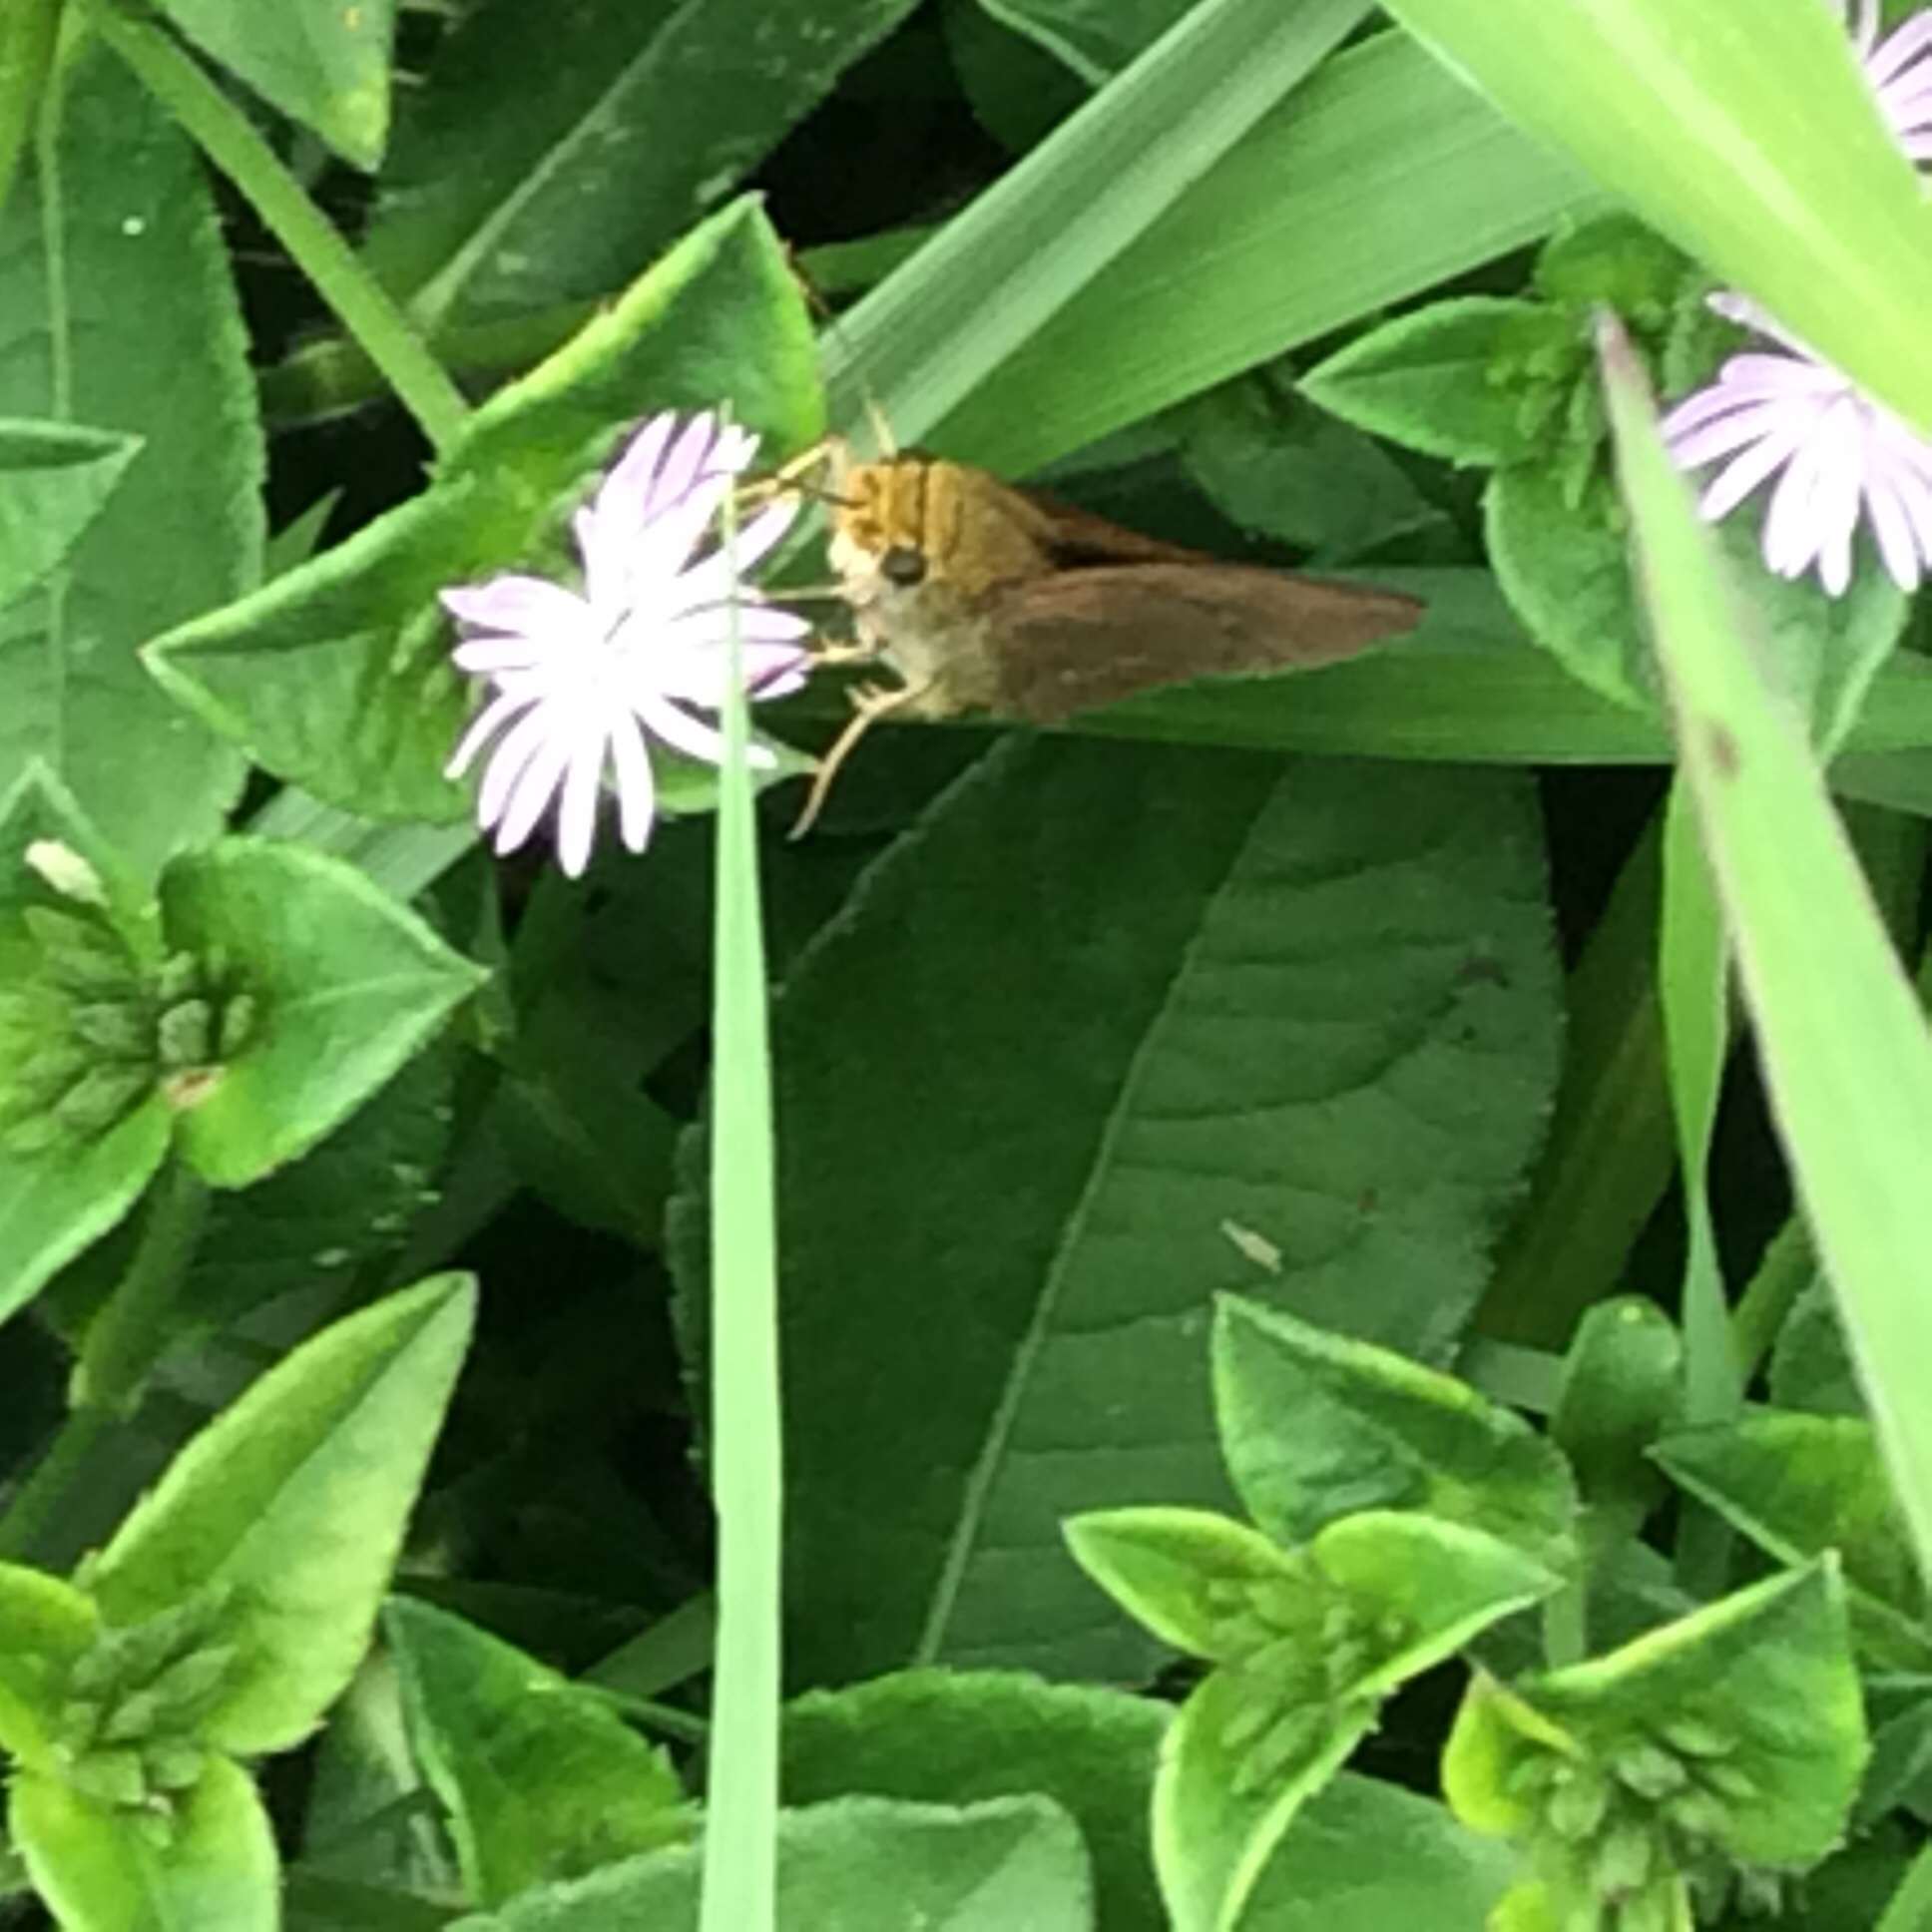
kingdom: Animalia
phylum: Arthropoda
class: Insecta
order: Lepidoptera
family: Hesperiidae
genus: Euphyes
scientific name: Euphyes vestris
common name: Dun skipper
